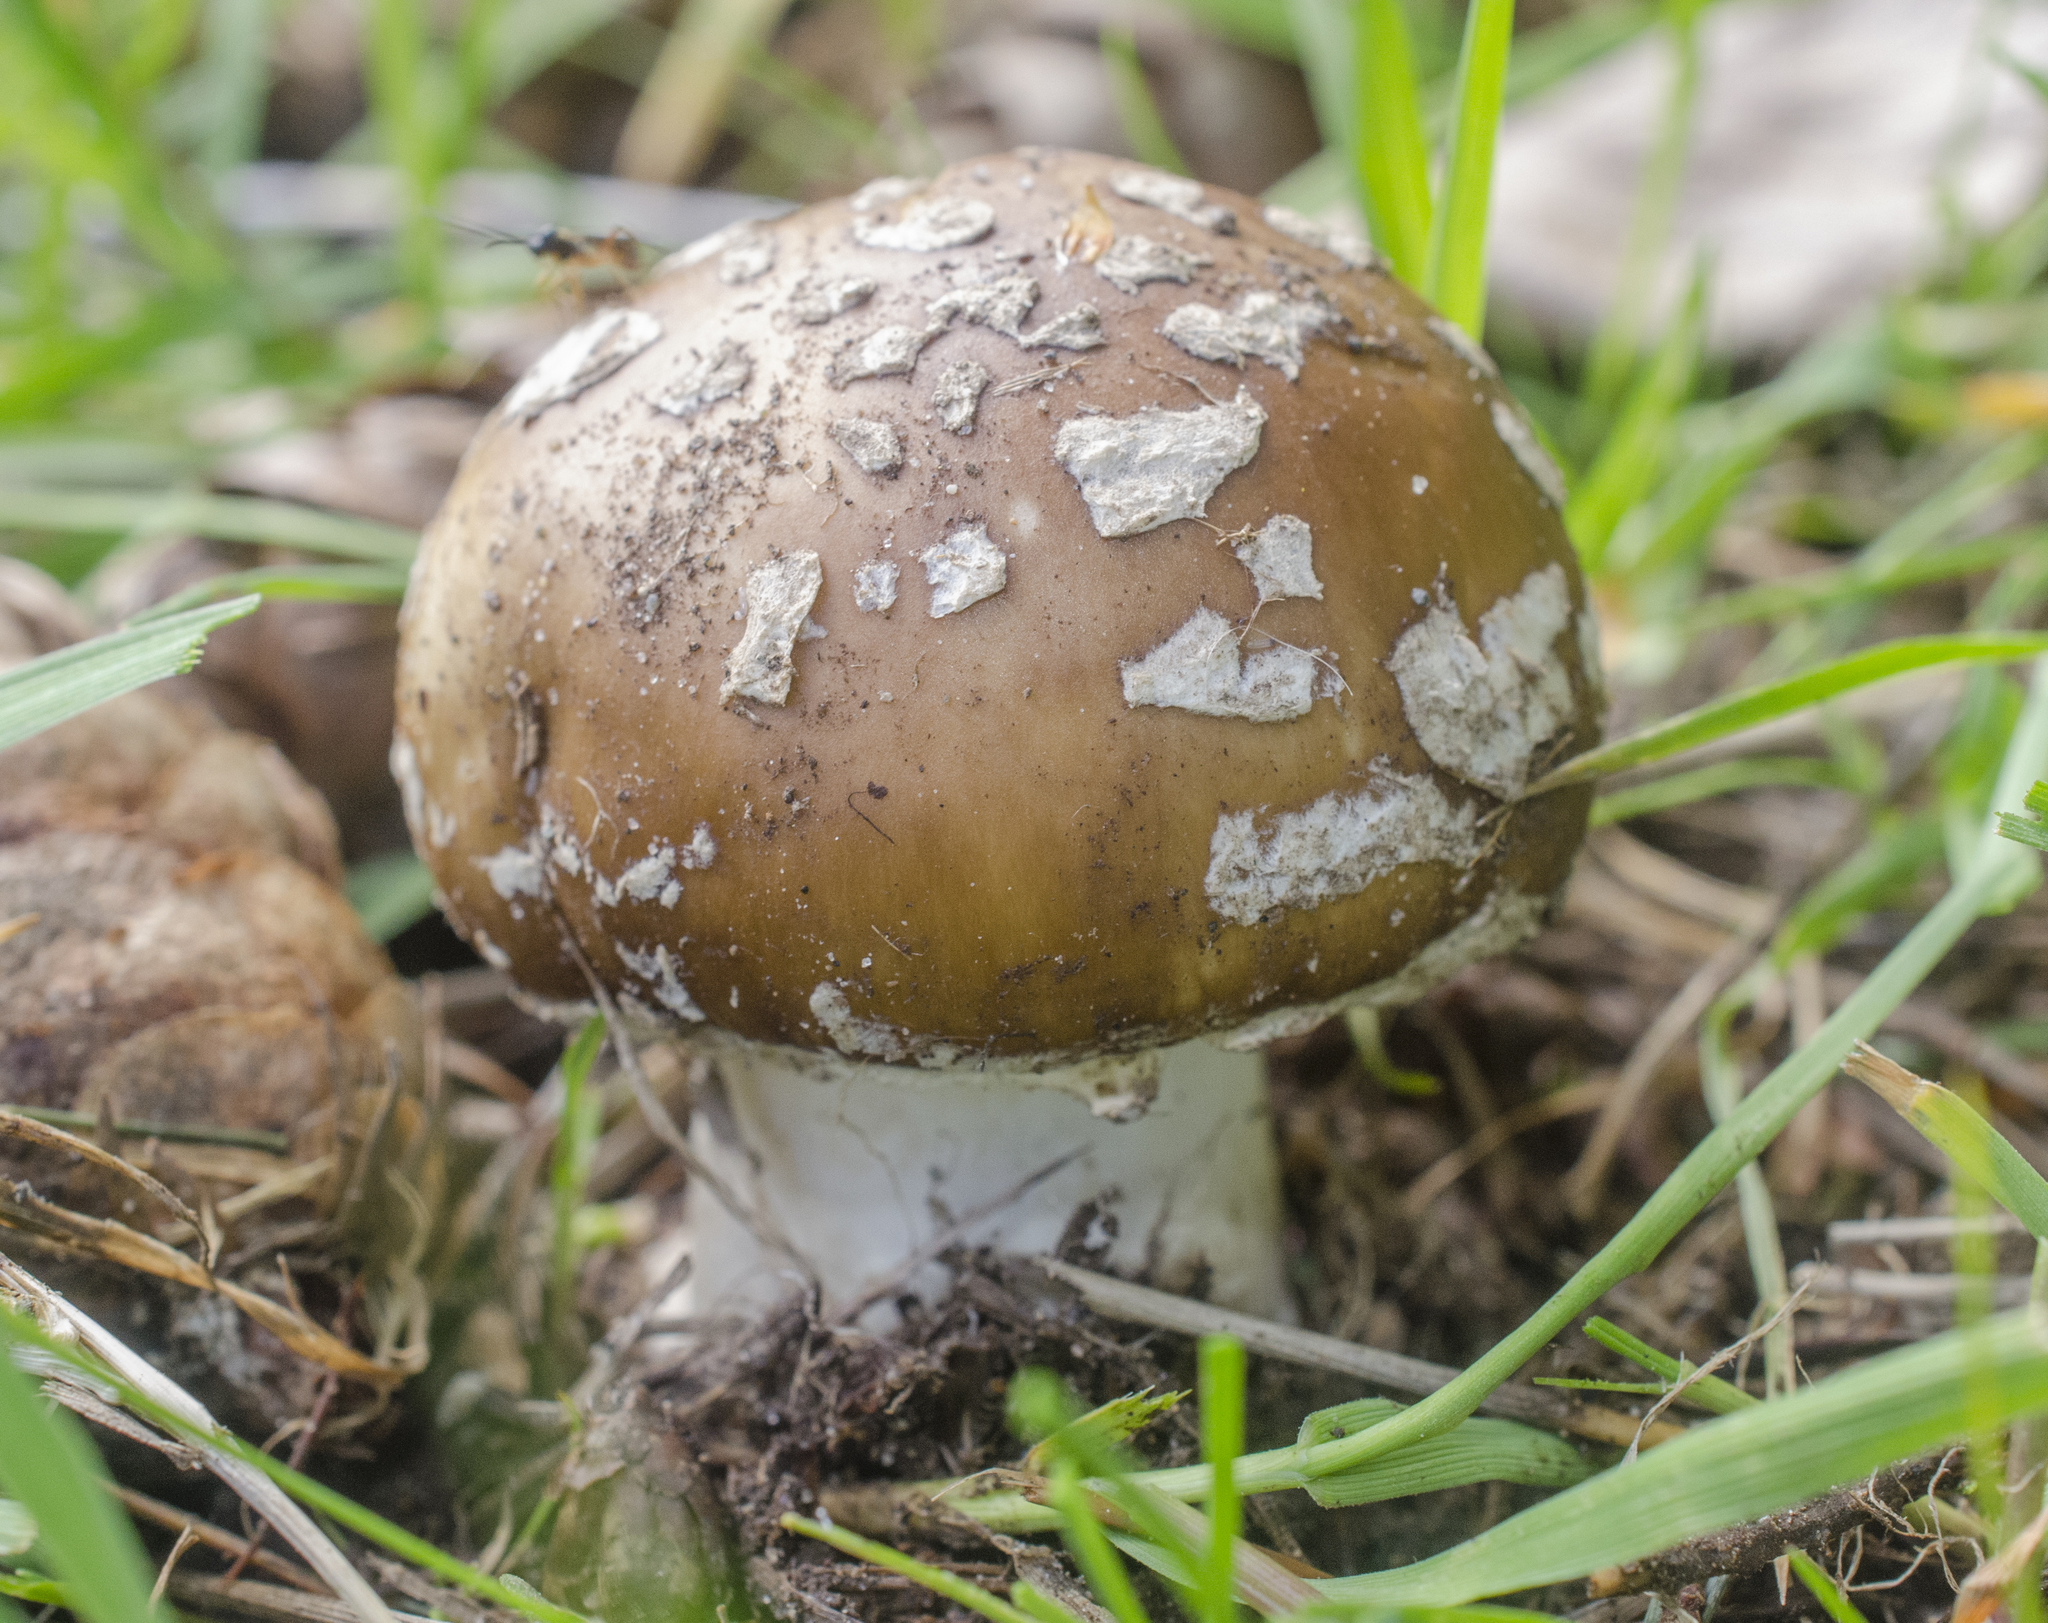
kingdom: Fungi
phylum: Basidiomycota
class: Agaricomycetes
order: Agaricales
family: Amanitaceae
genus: Amanita
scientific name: Amanita pantherina
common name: Panthercap
